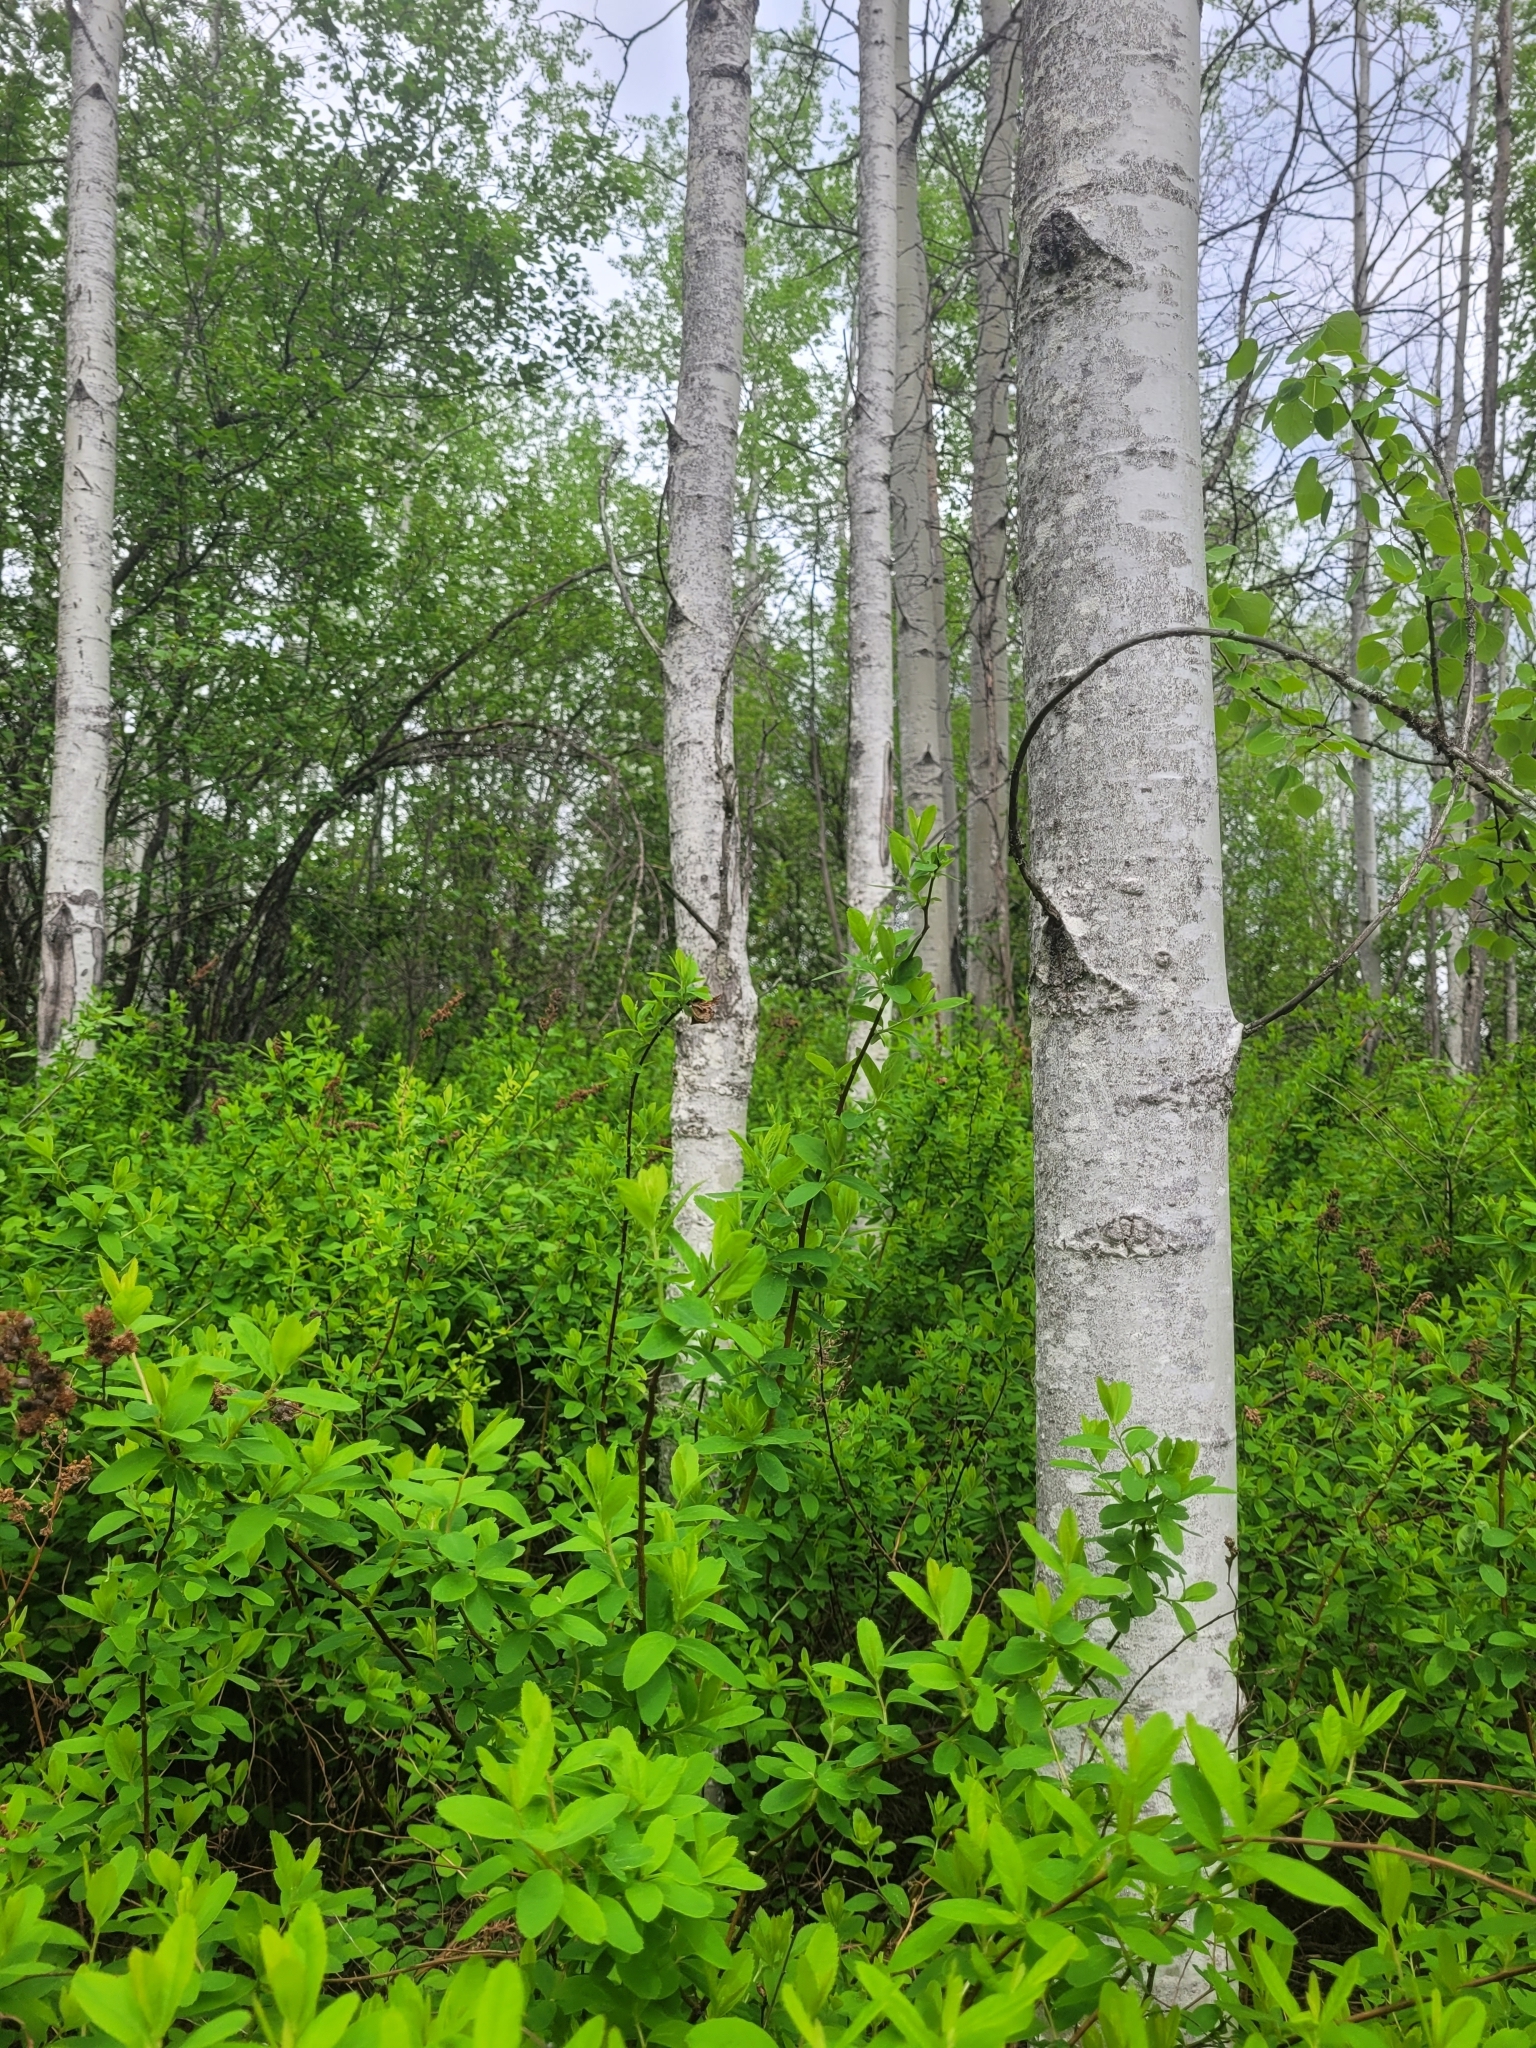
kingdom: Plantae
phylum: Tracheophyta
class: Magnoliopsida
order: Malpighiales
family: Salicaceae
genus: Populus
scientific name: Populus tremuloides
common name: Quaking aspen
